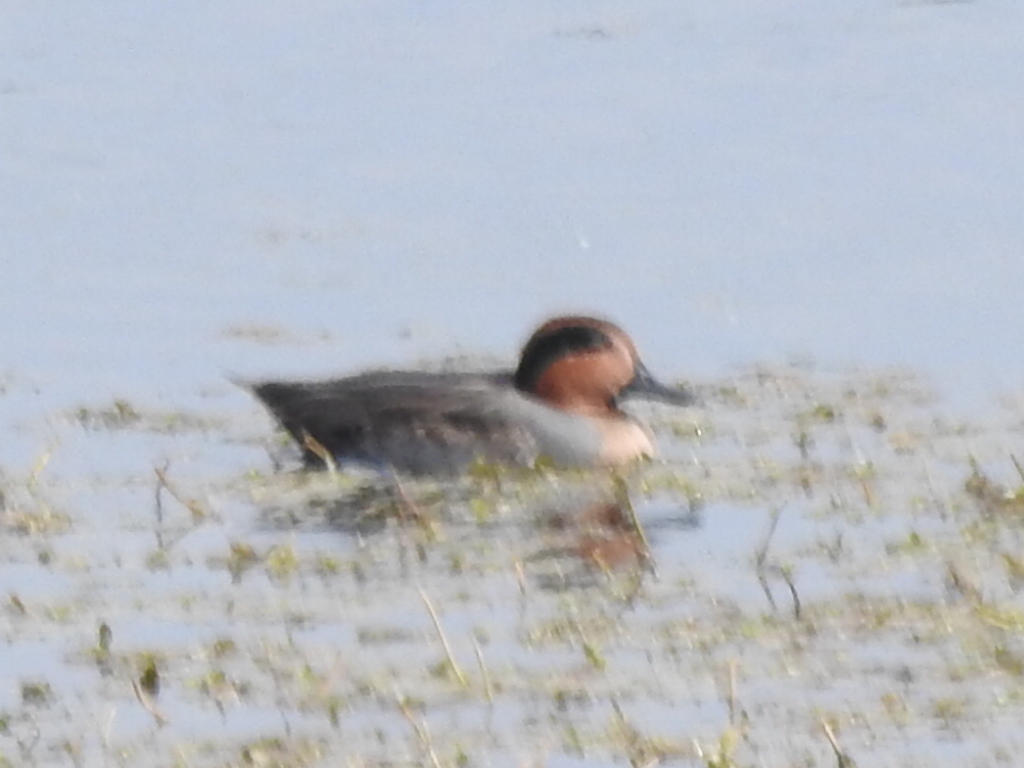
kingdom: Animalia
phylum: Chordata
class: Aves
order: Anseriformes
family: Anatidae
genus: Anas
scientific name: Anas crecca
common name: Eurasian teal
